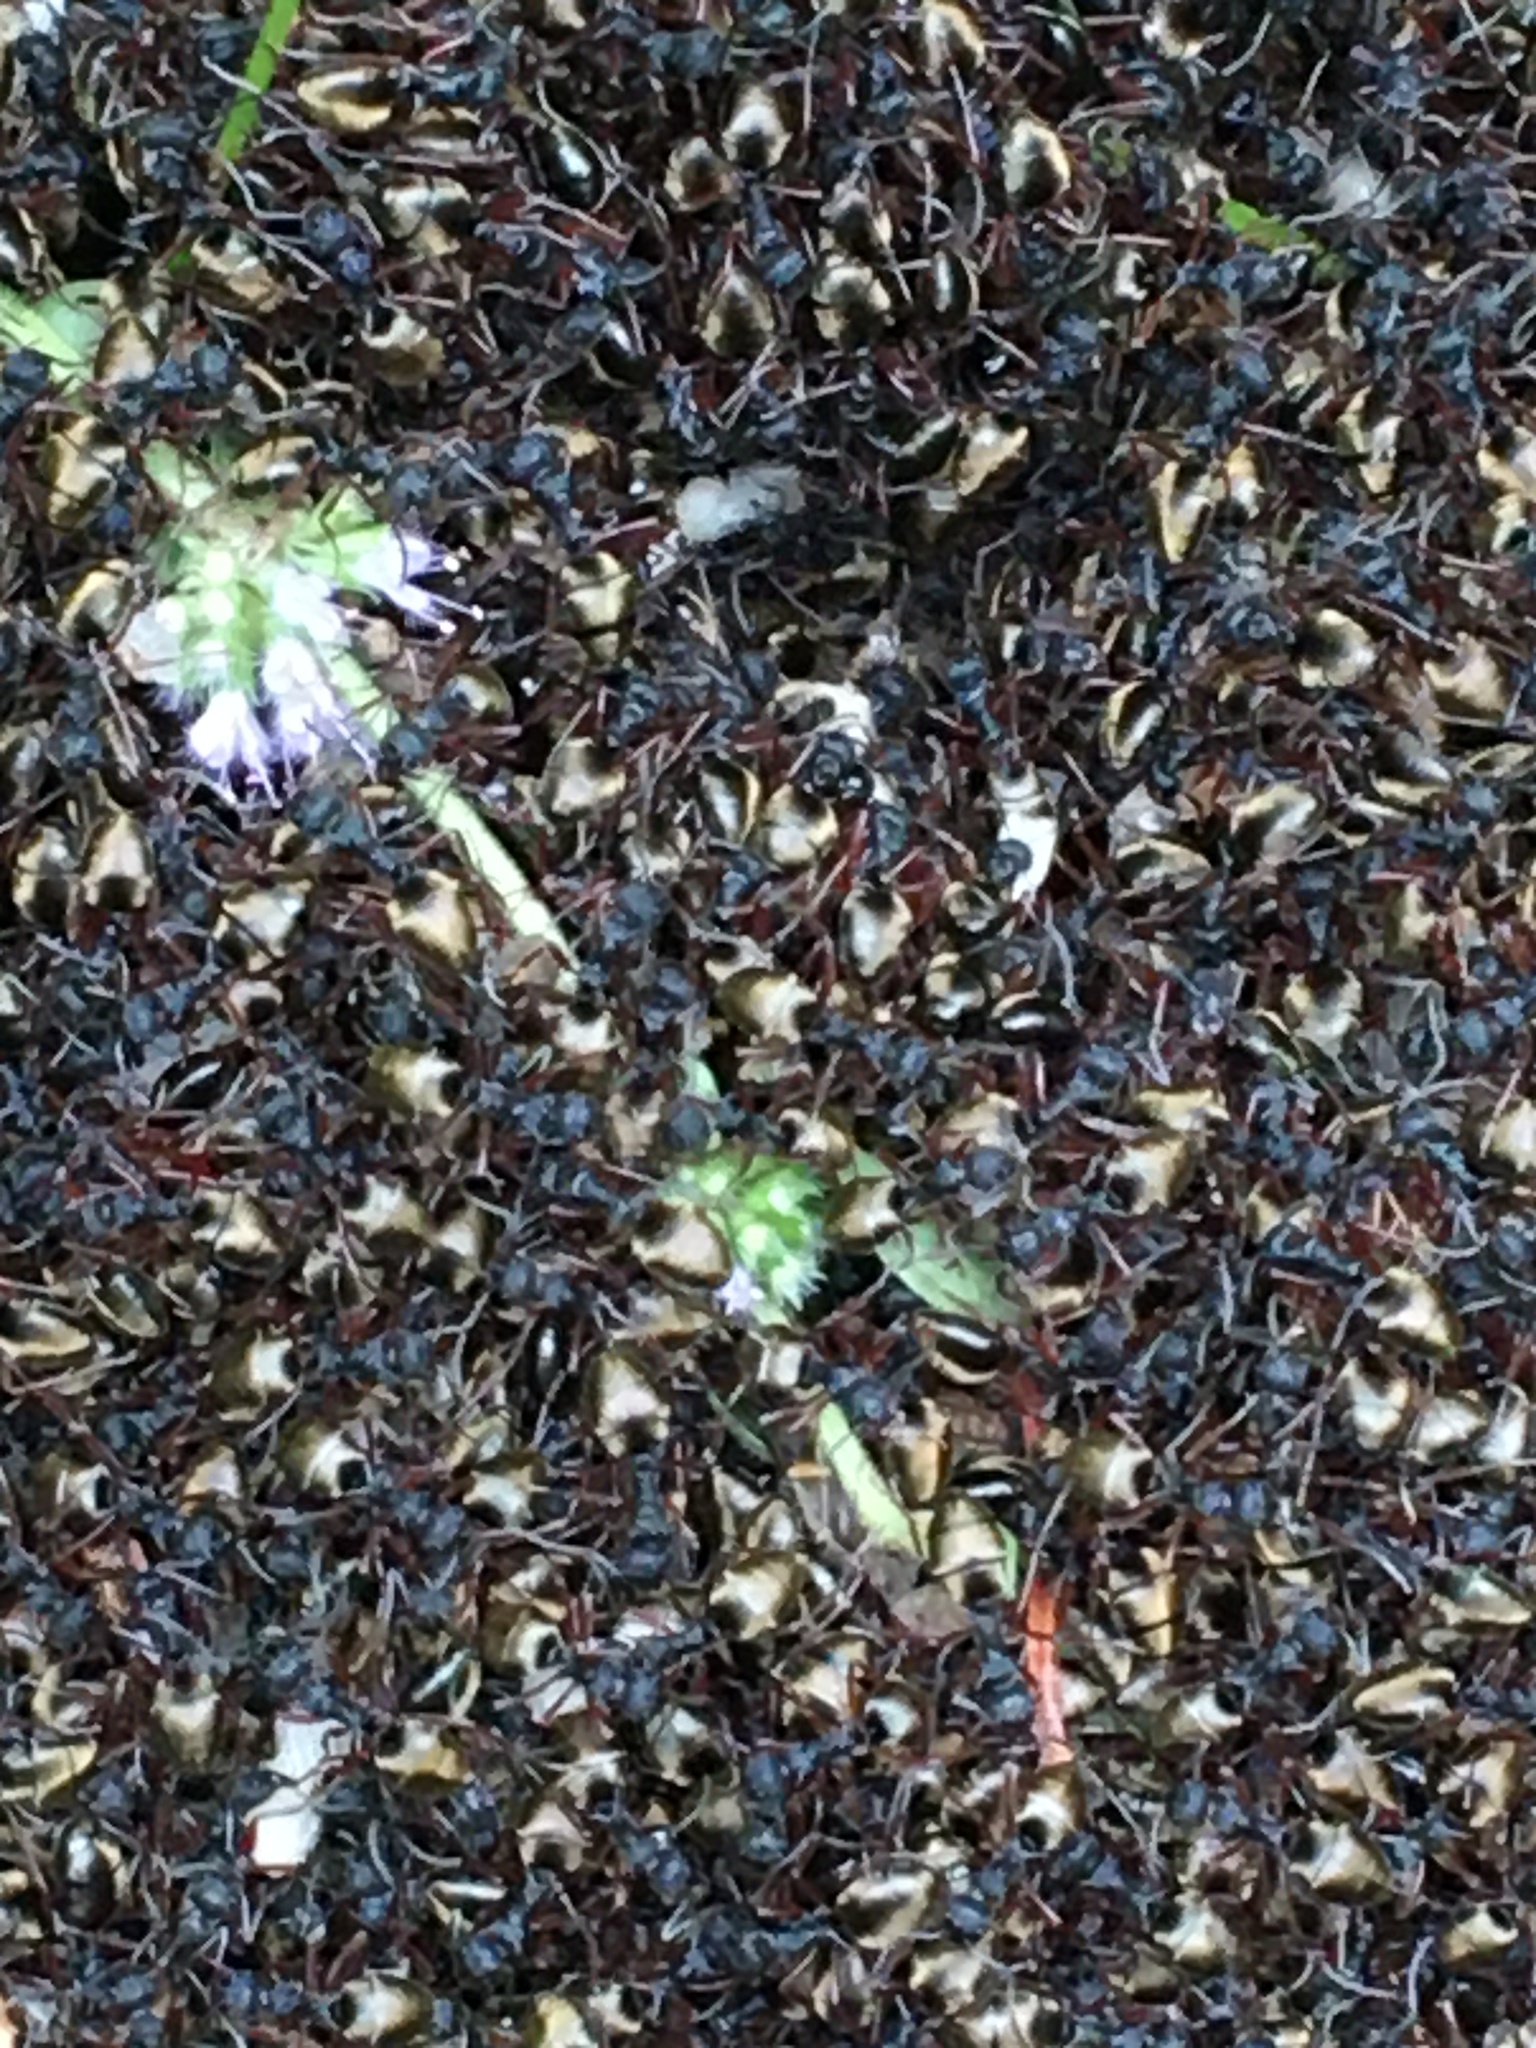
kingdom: Animalia
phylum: Arthropoda
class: Insecta
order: Hymenoptera
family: Formicidae
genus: Dolichoderus
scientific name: Dolichoderus doriae
